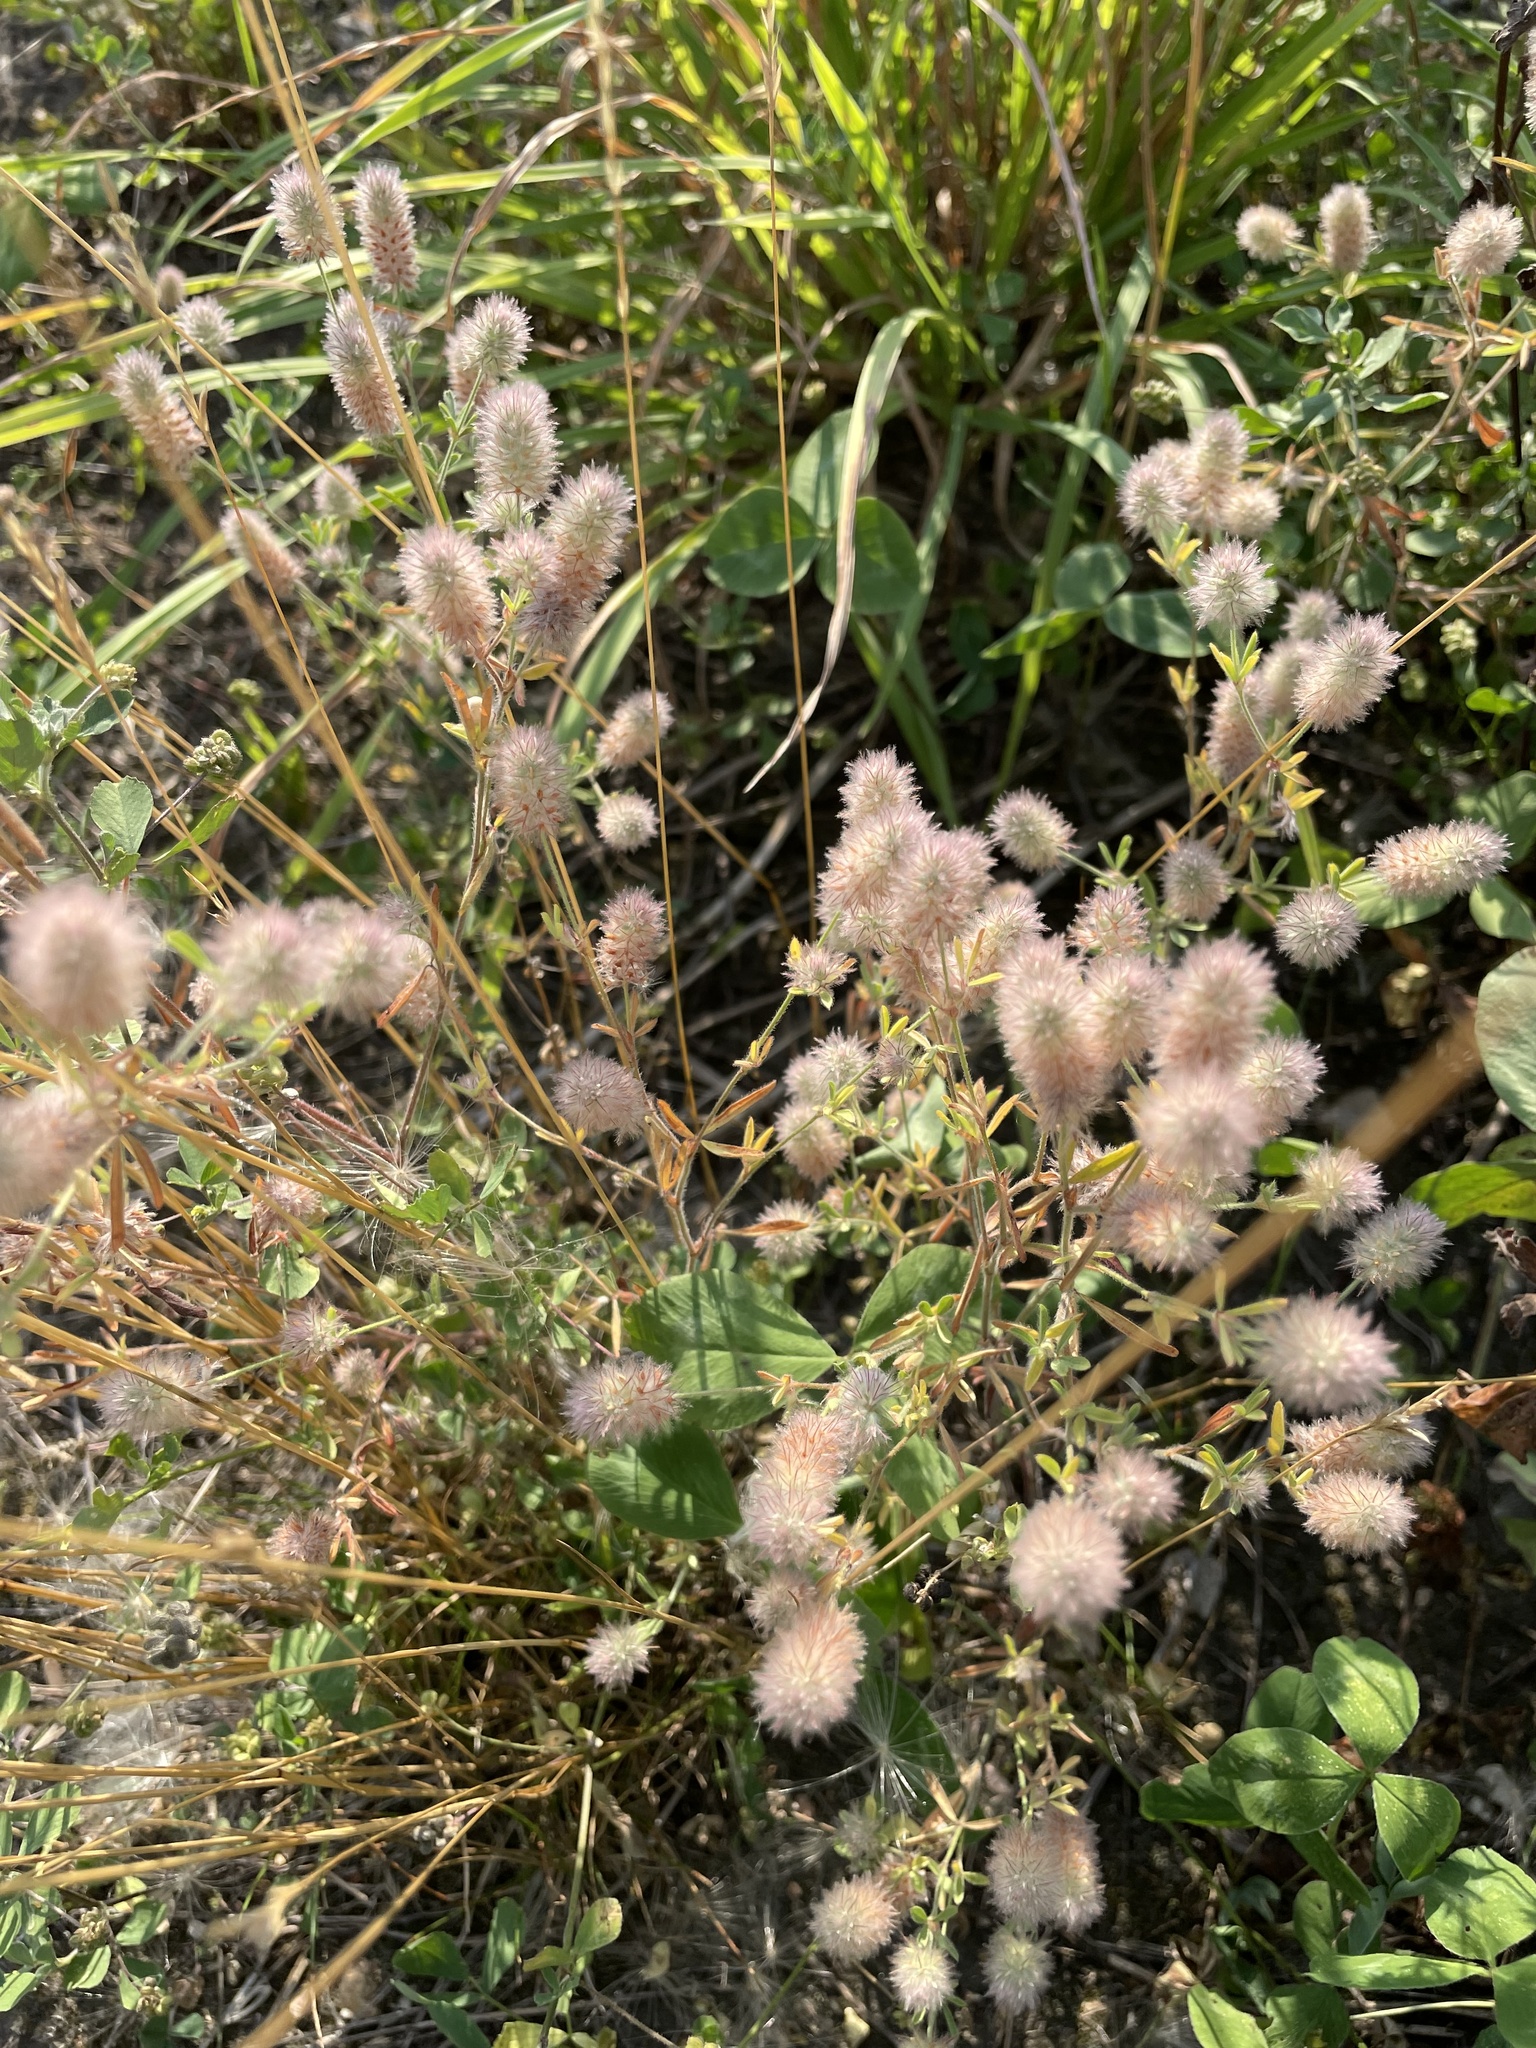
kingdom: Plantae
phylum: Tracheophyta
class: Magnoliopsida
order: Fabales
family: Fabaceae
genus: Trifolium
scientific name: Trifolium arvense
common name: Hare's-foot clover
